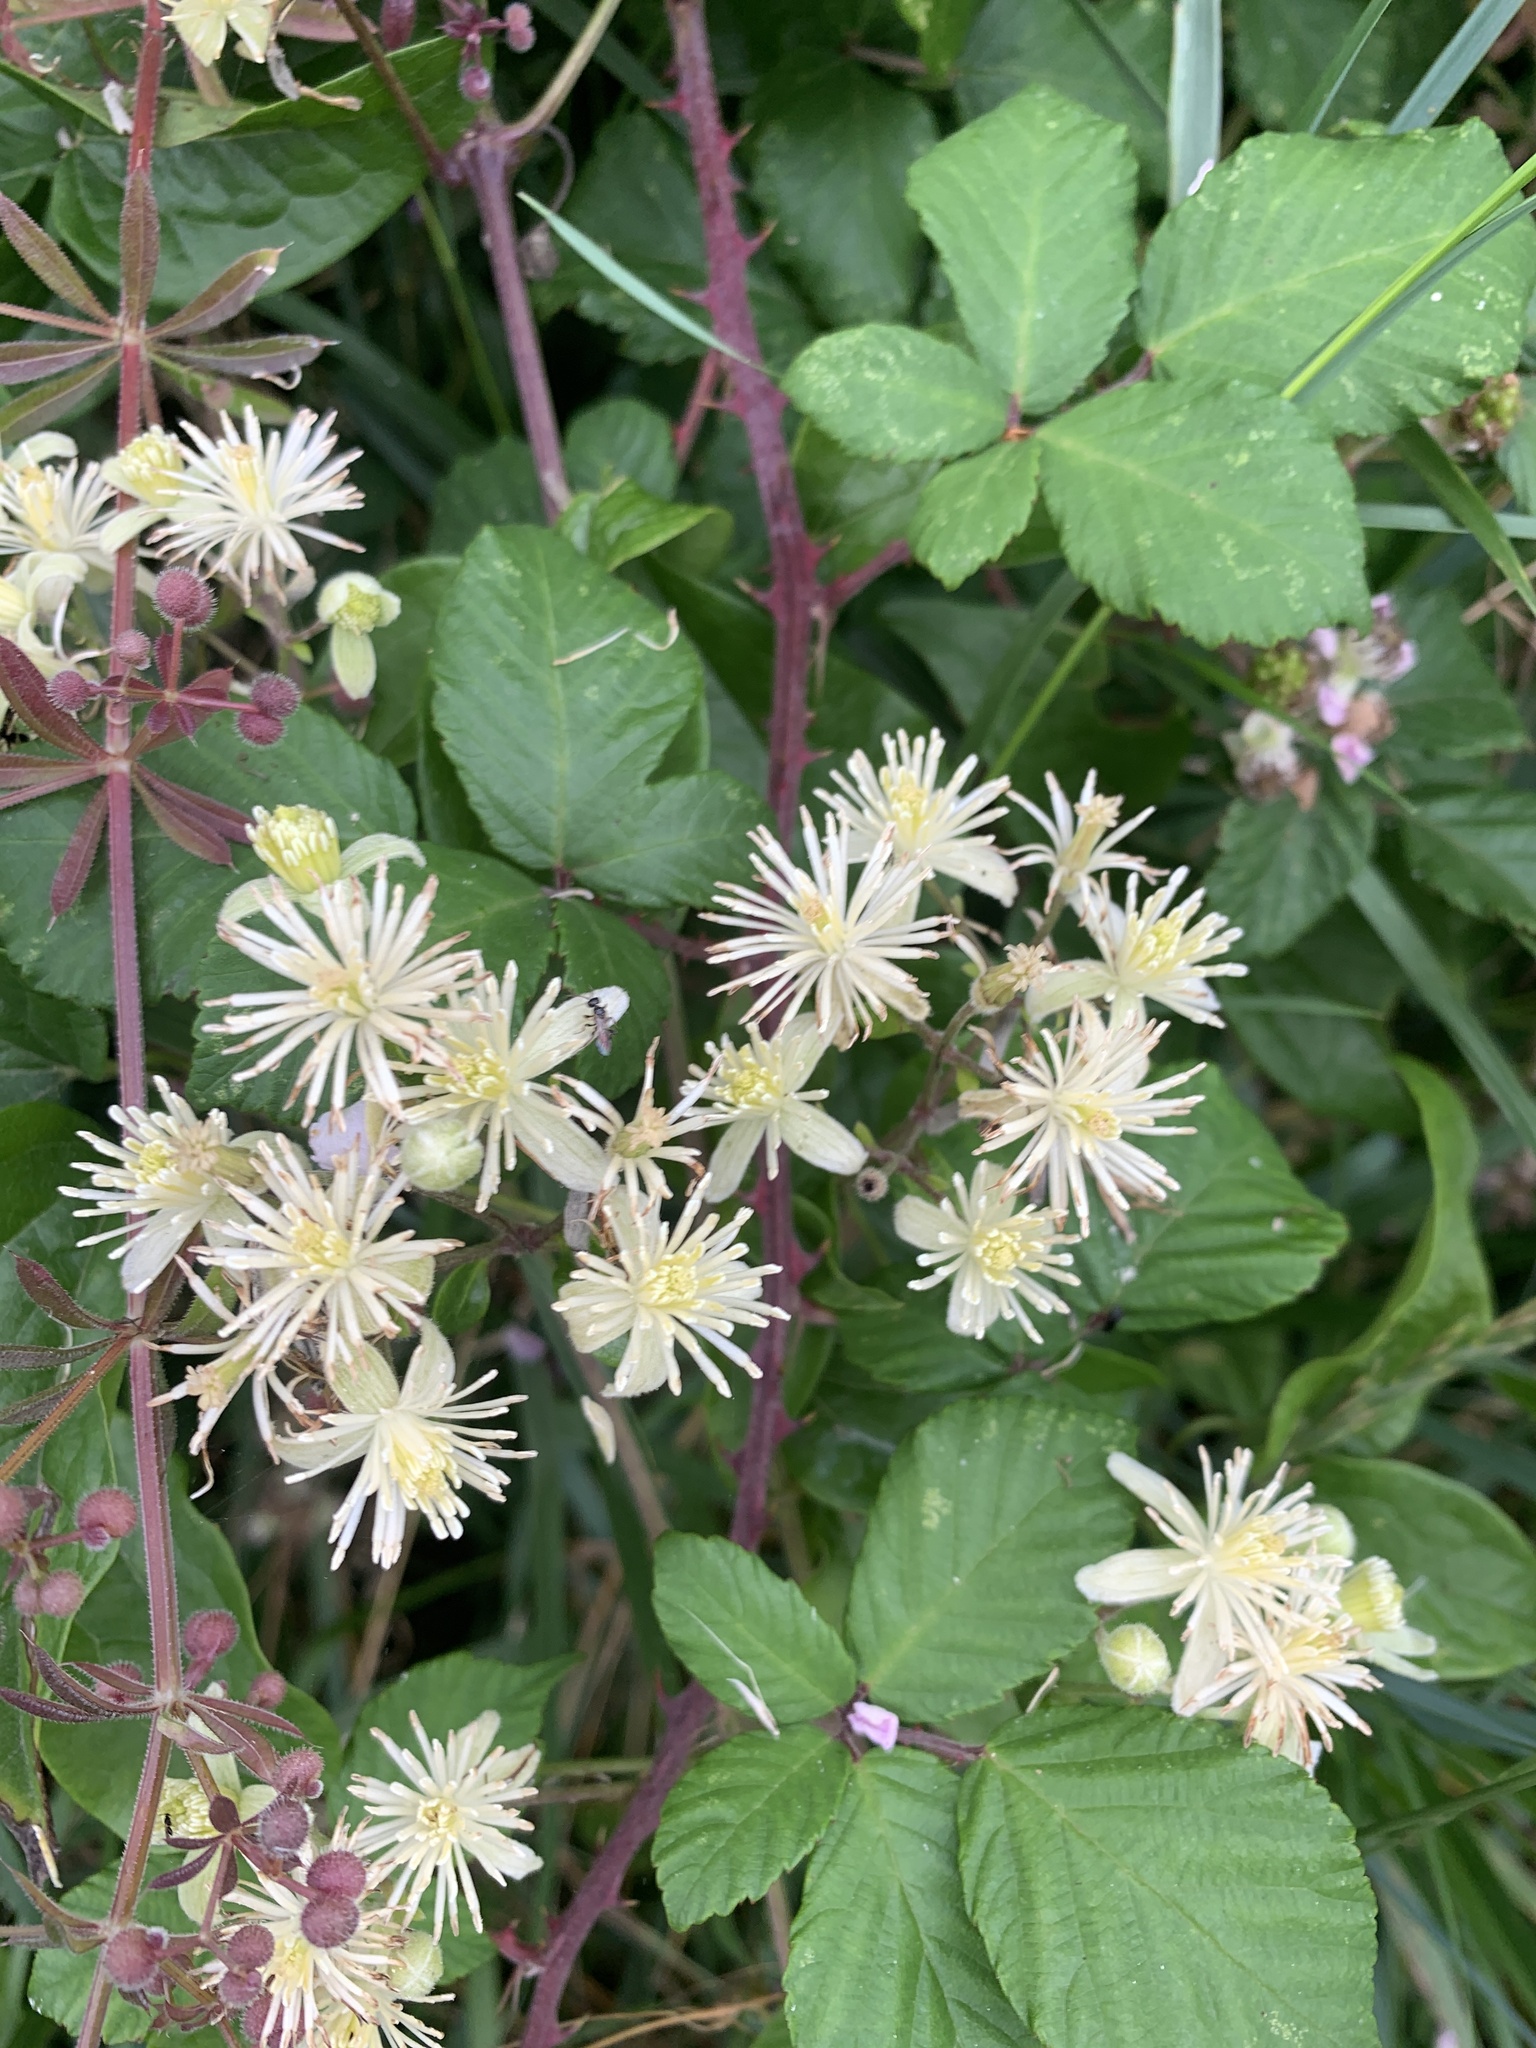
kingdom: Plantae
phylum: Tracheophyta
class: Magnoliopsida
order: Ranunculales
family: Ranunculaceae
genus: Clematis
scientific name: Clematis vitalba
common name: Evergreen clematis
